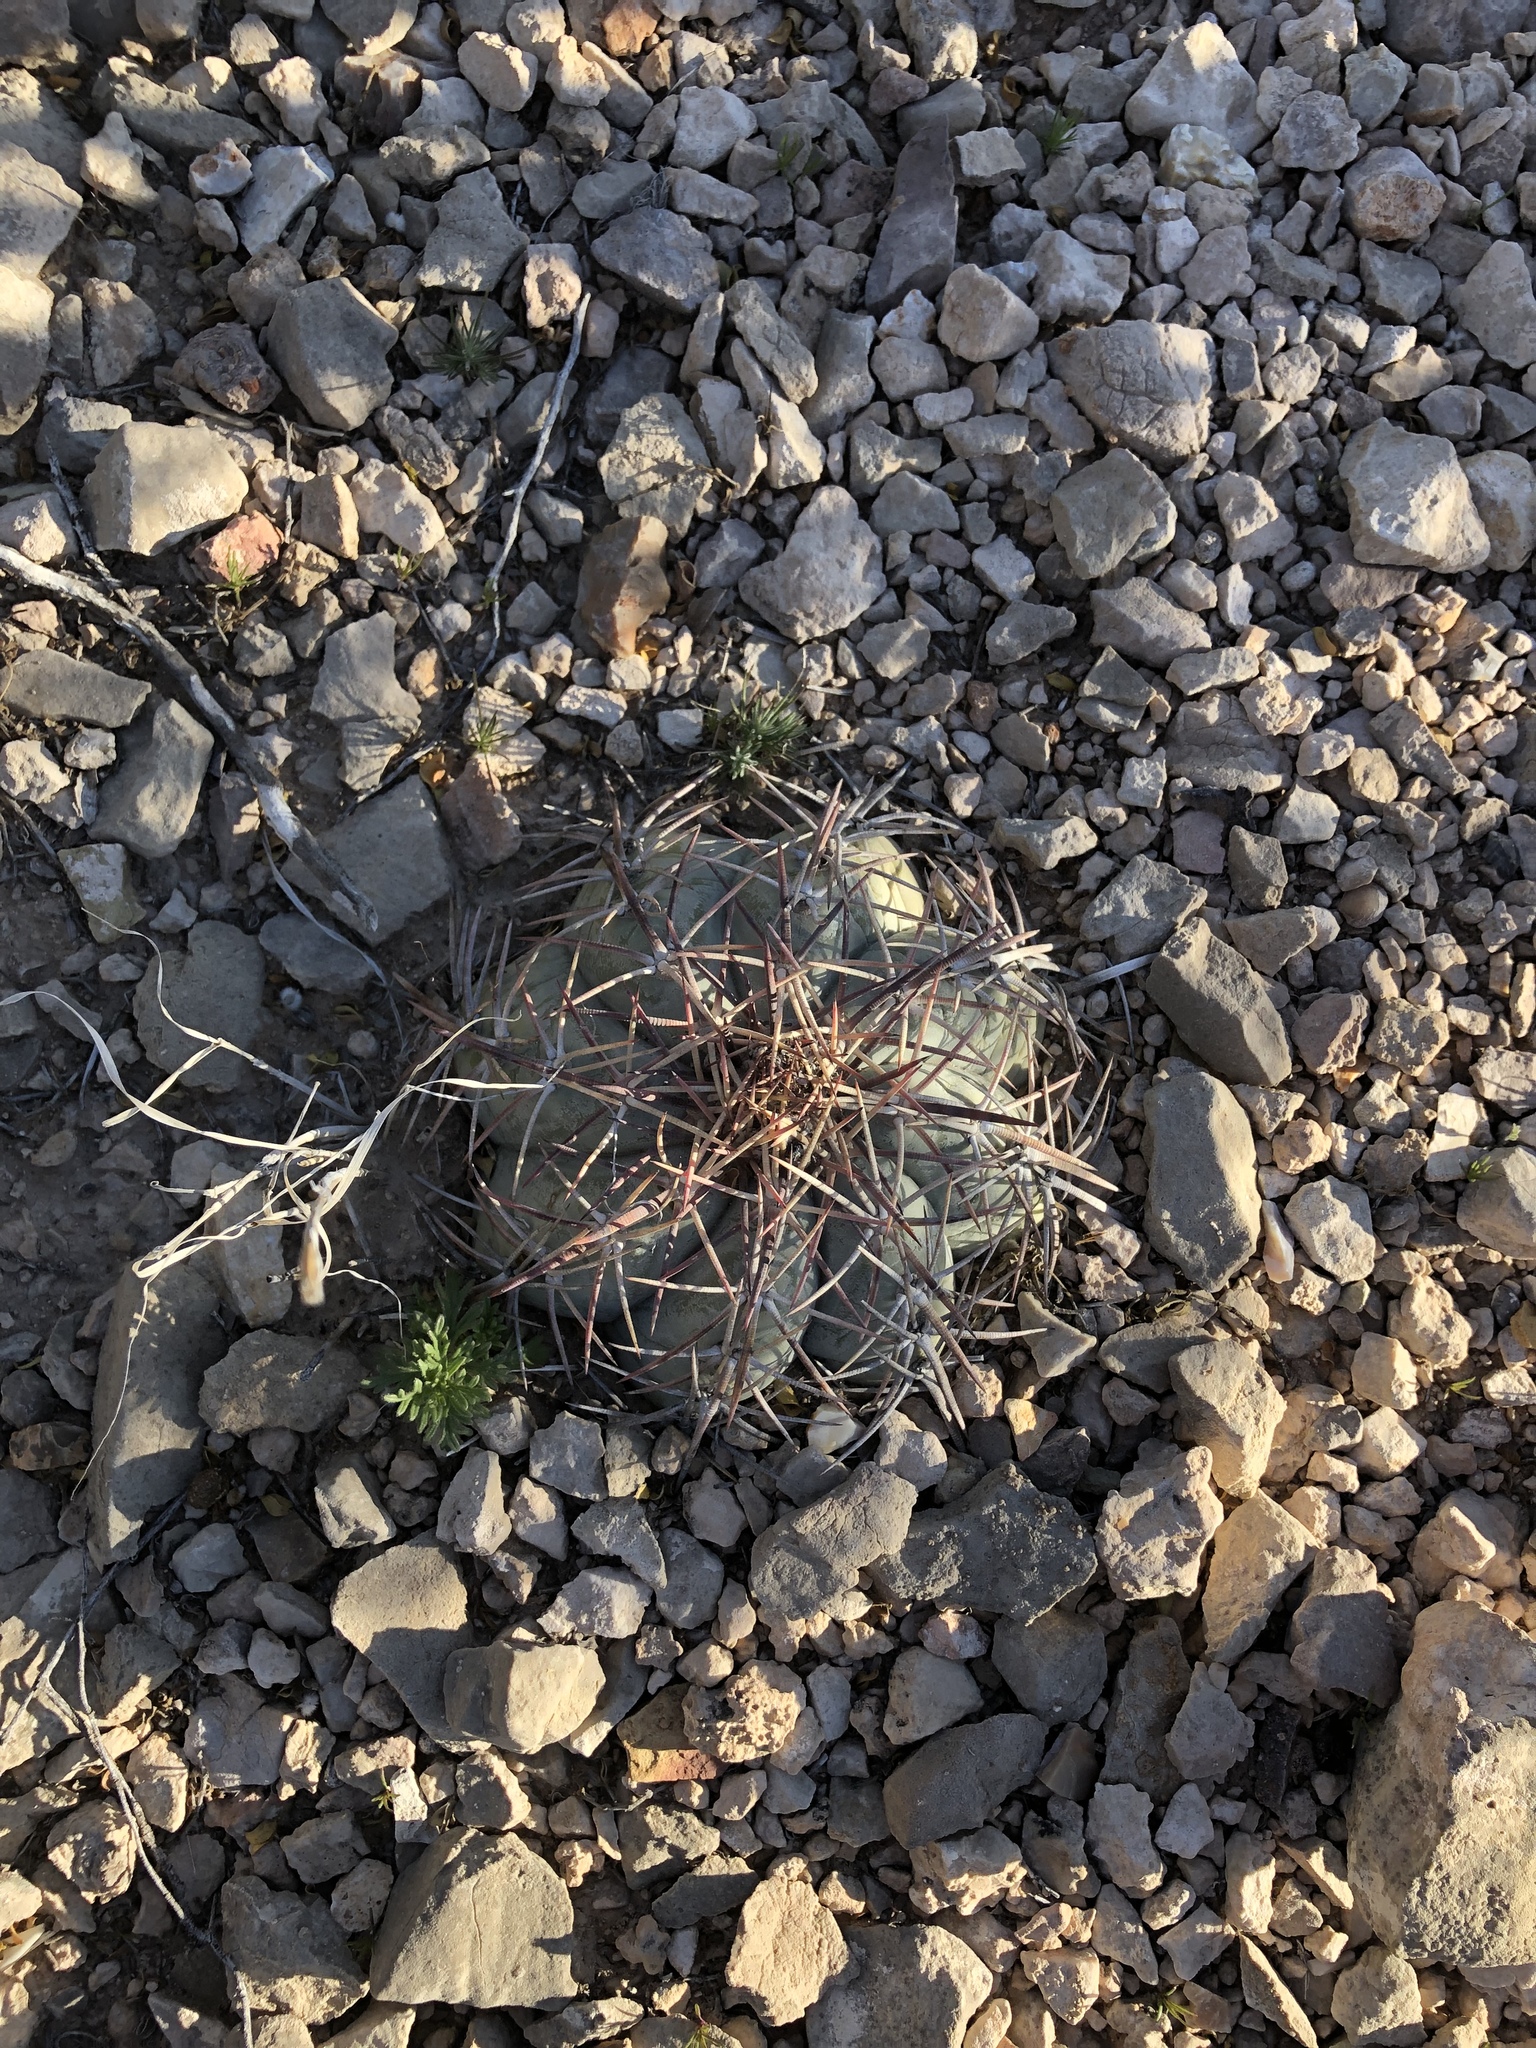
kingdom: Plantae
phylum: Tracheophyta
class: Magnoliopsida
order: Caryophyllales
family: Cactaceae
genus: Echinocactus
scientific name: Echinocactus horizonthalonius
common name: Devilshead
